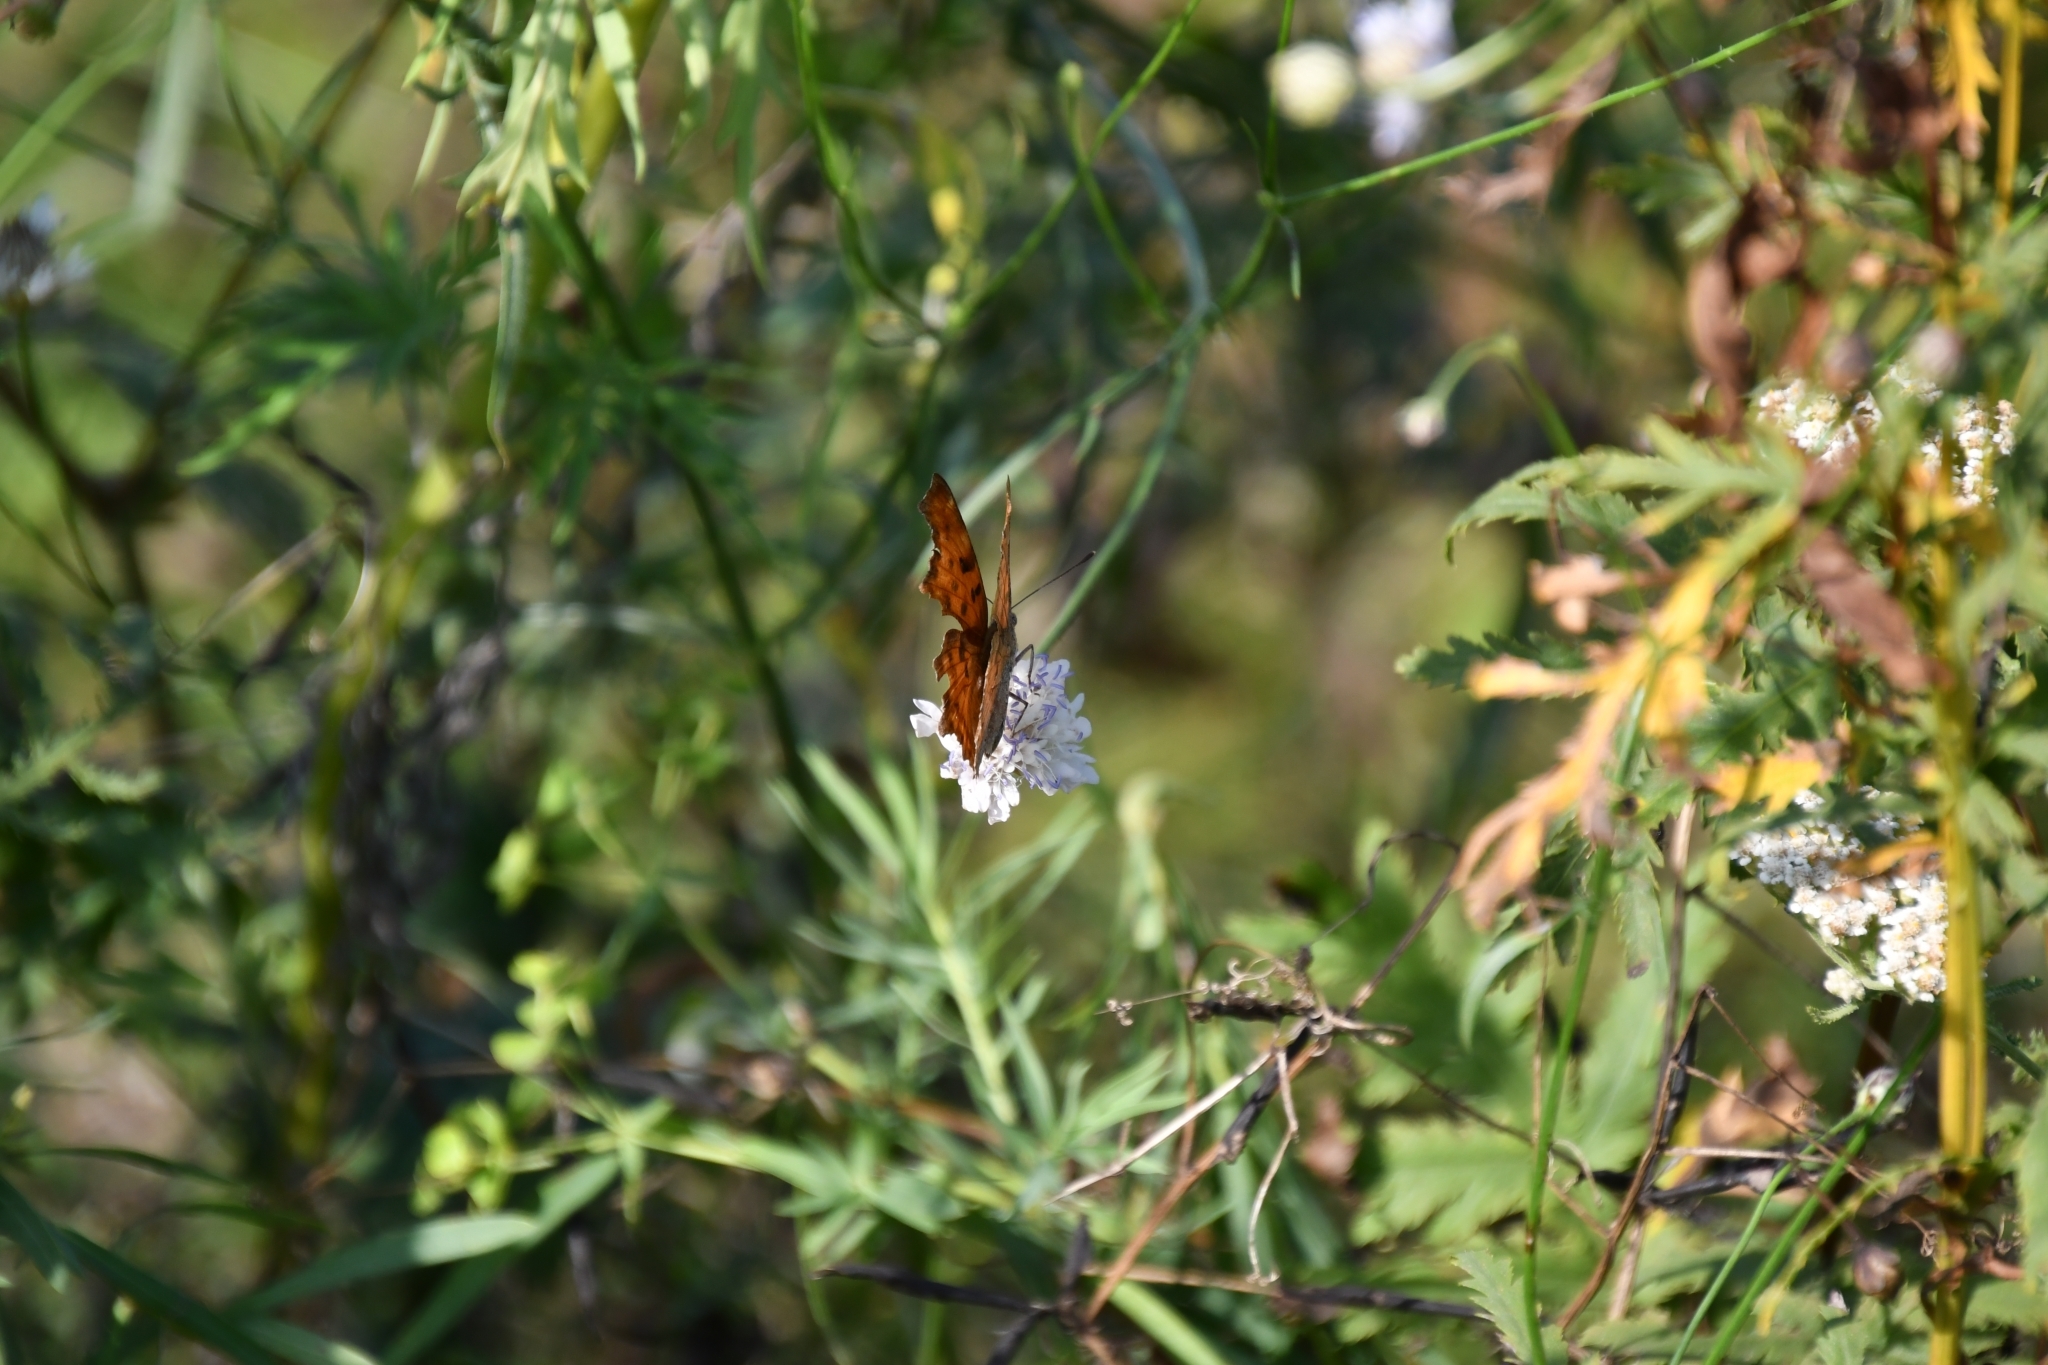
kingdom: Animalia
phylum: Arthropoda
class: Insecta
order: Lepidoptera
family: Nymphalidae
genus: Polygonia
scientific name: Polygonia c-album
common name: Comma
